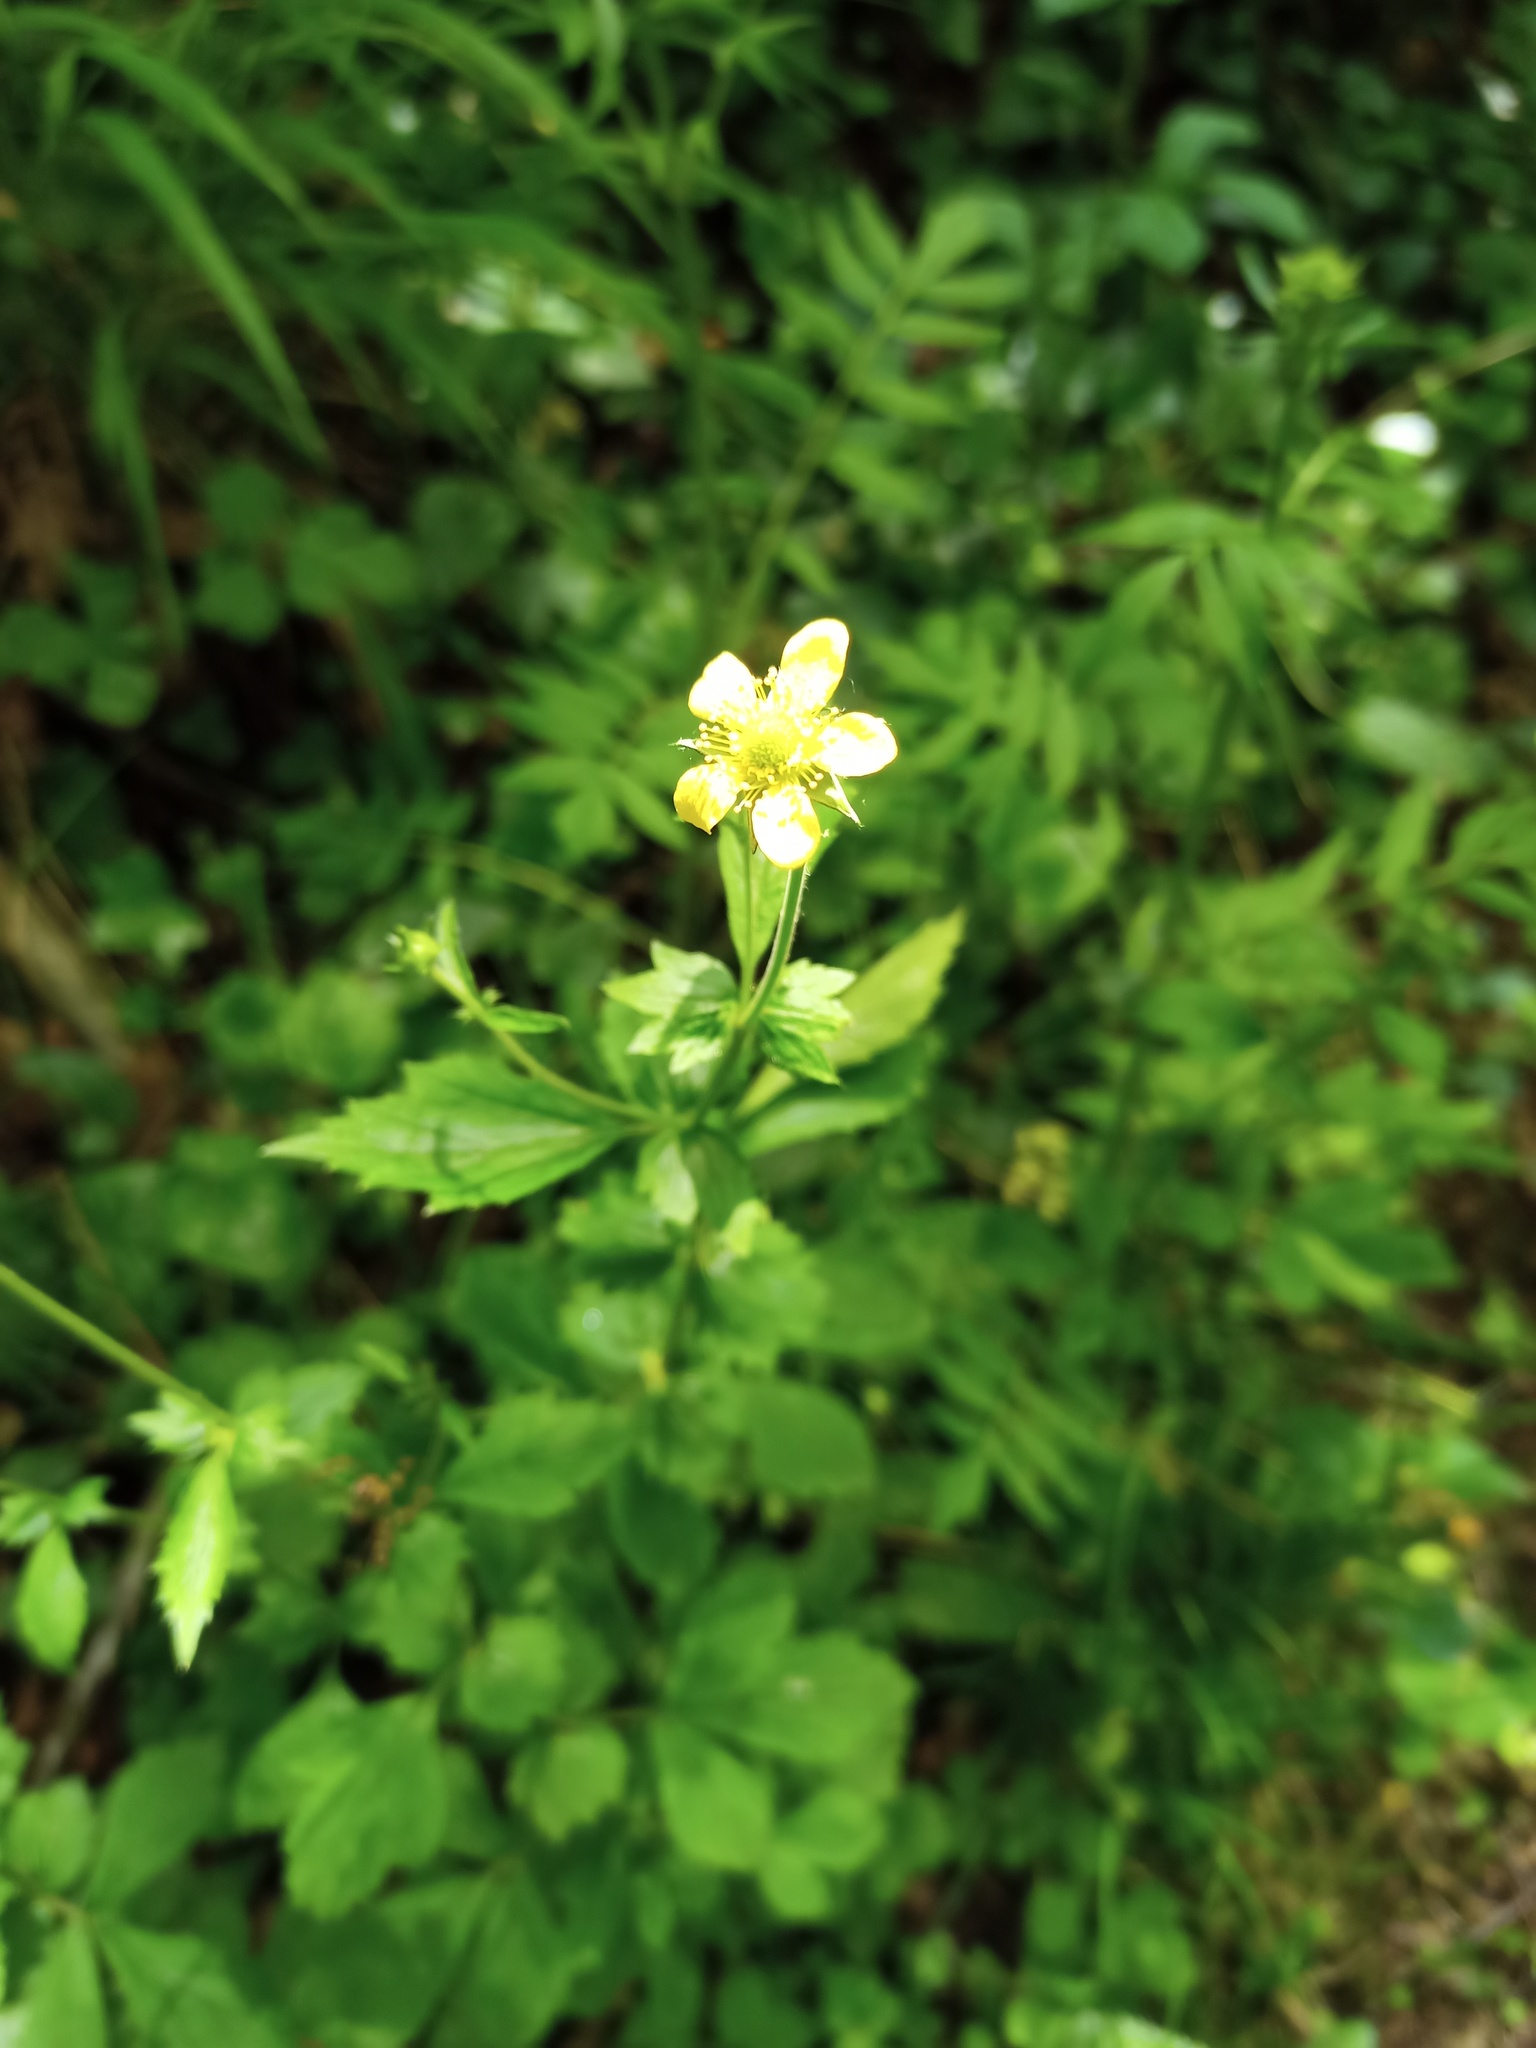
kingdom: Plantae
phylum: Tracheophyta
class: Magnoliopsida
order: Rosales
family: Rosaceae
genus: Geum
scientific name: Geum urbanum
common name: Wood avens
